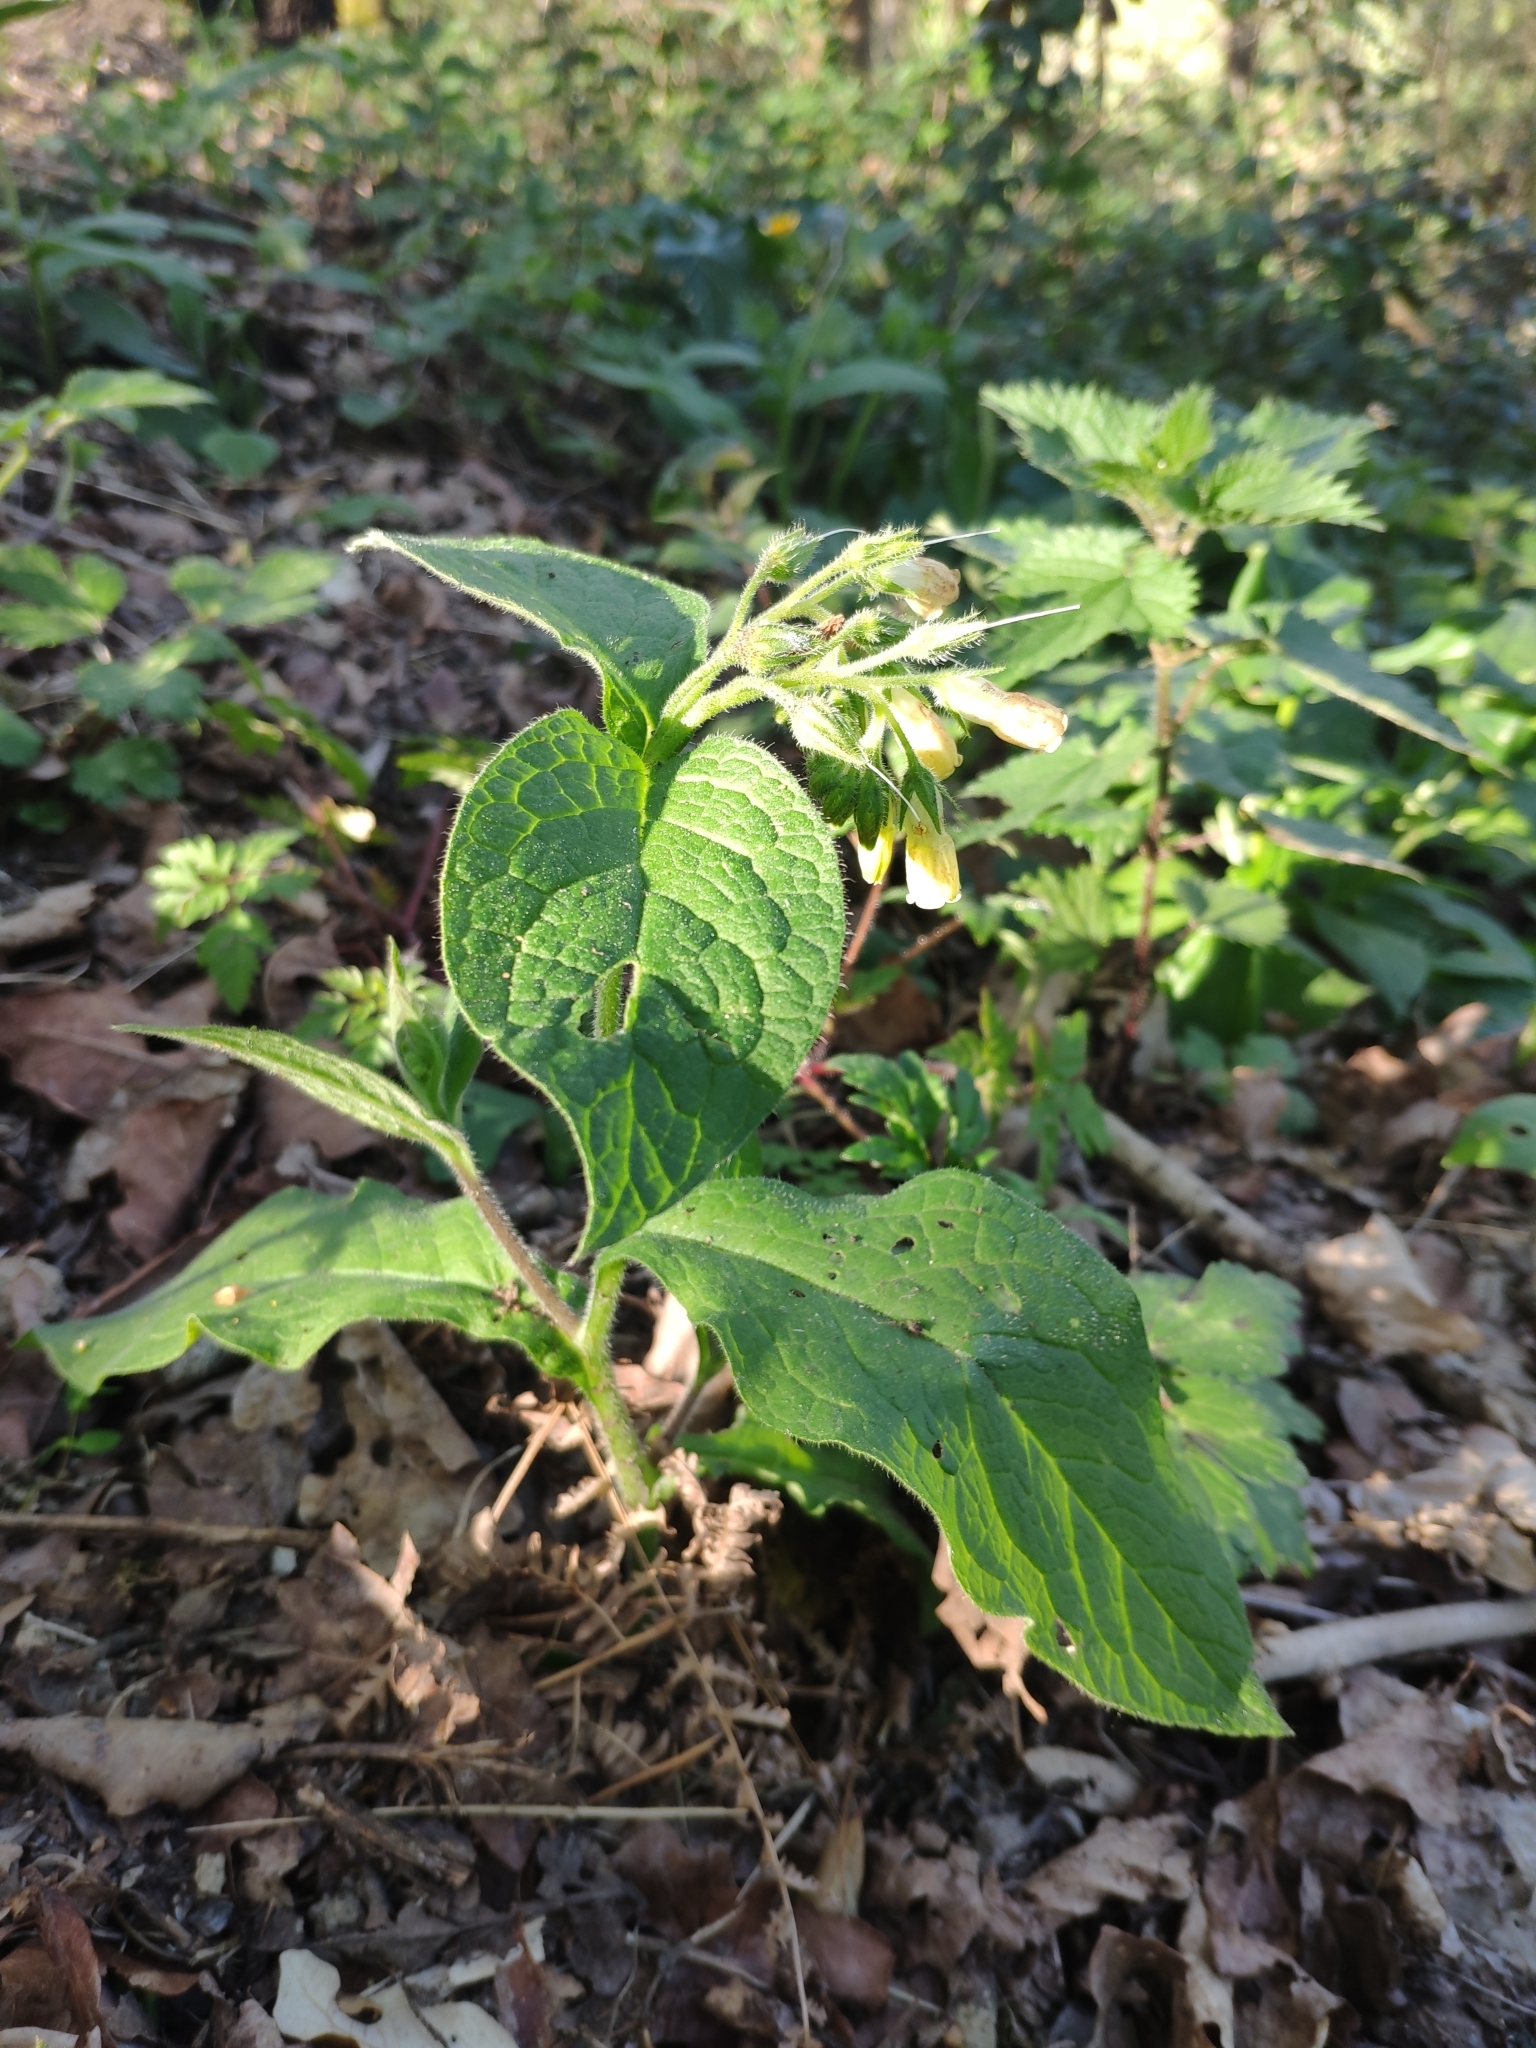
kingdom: Plantae
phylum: Tracheophyta
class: Magnoliopsida
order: Boraginales
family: Boraginaceae
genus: Symphytum
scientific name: Symphytum tuberosum
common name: Tuberous comfrey
